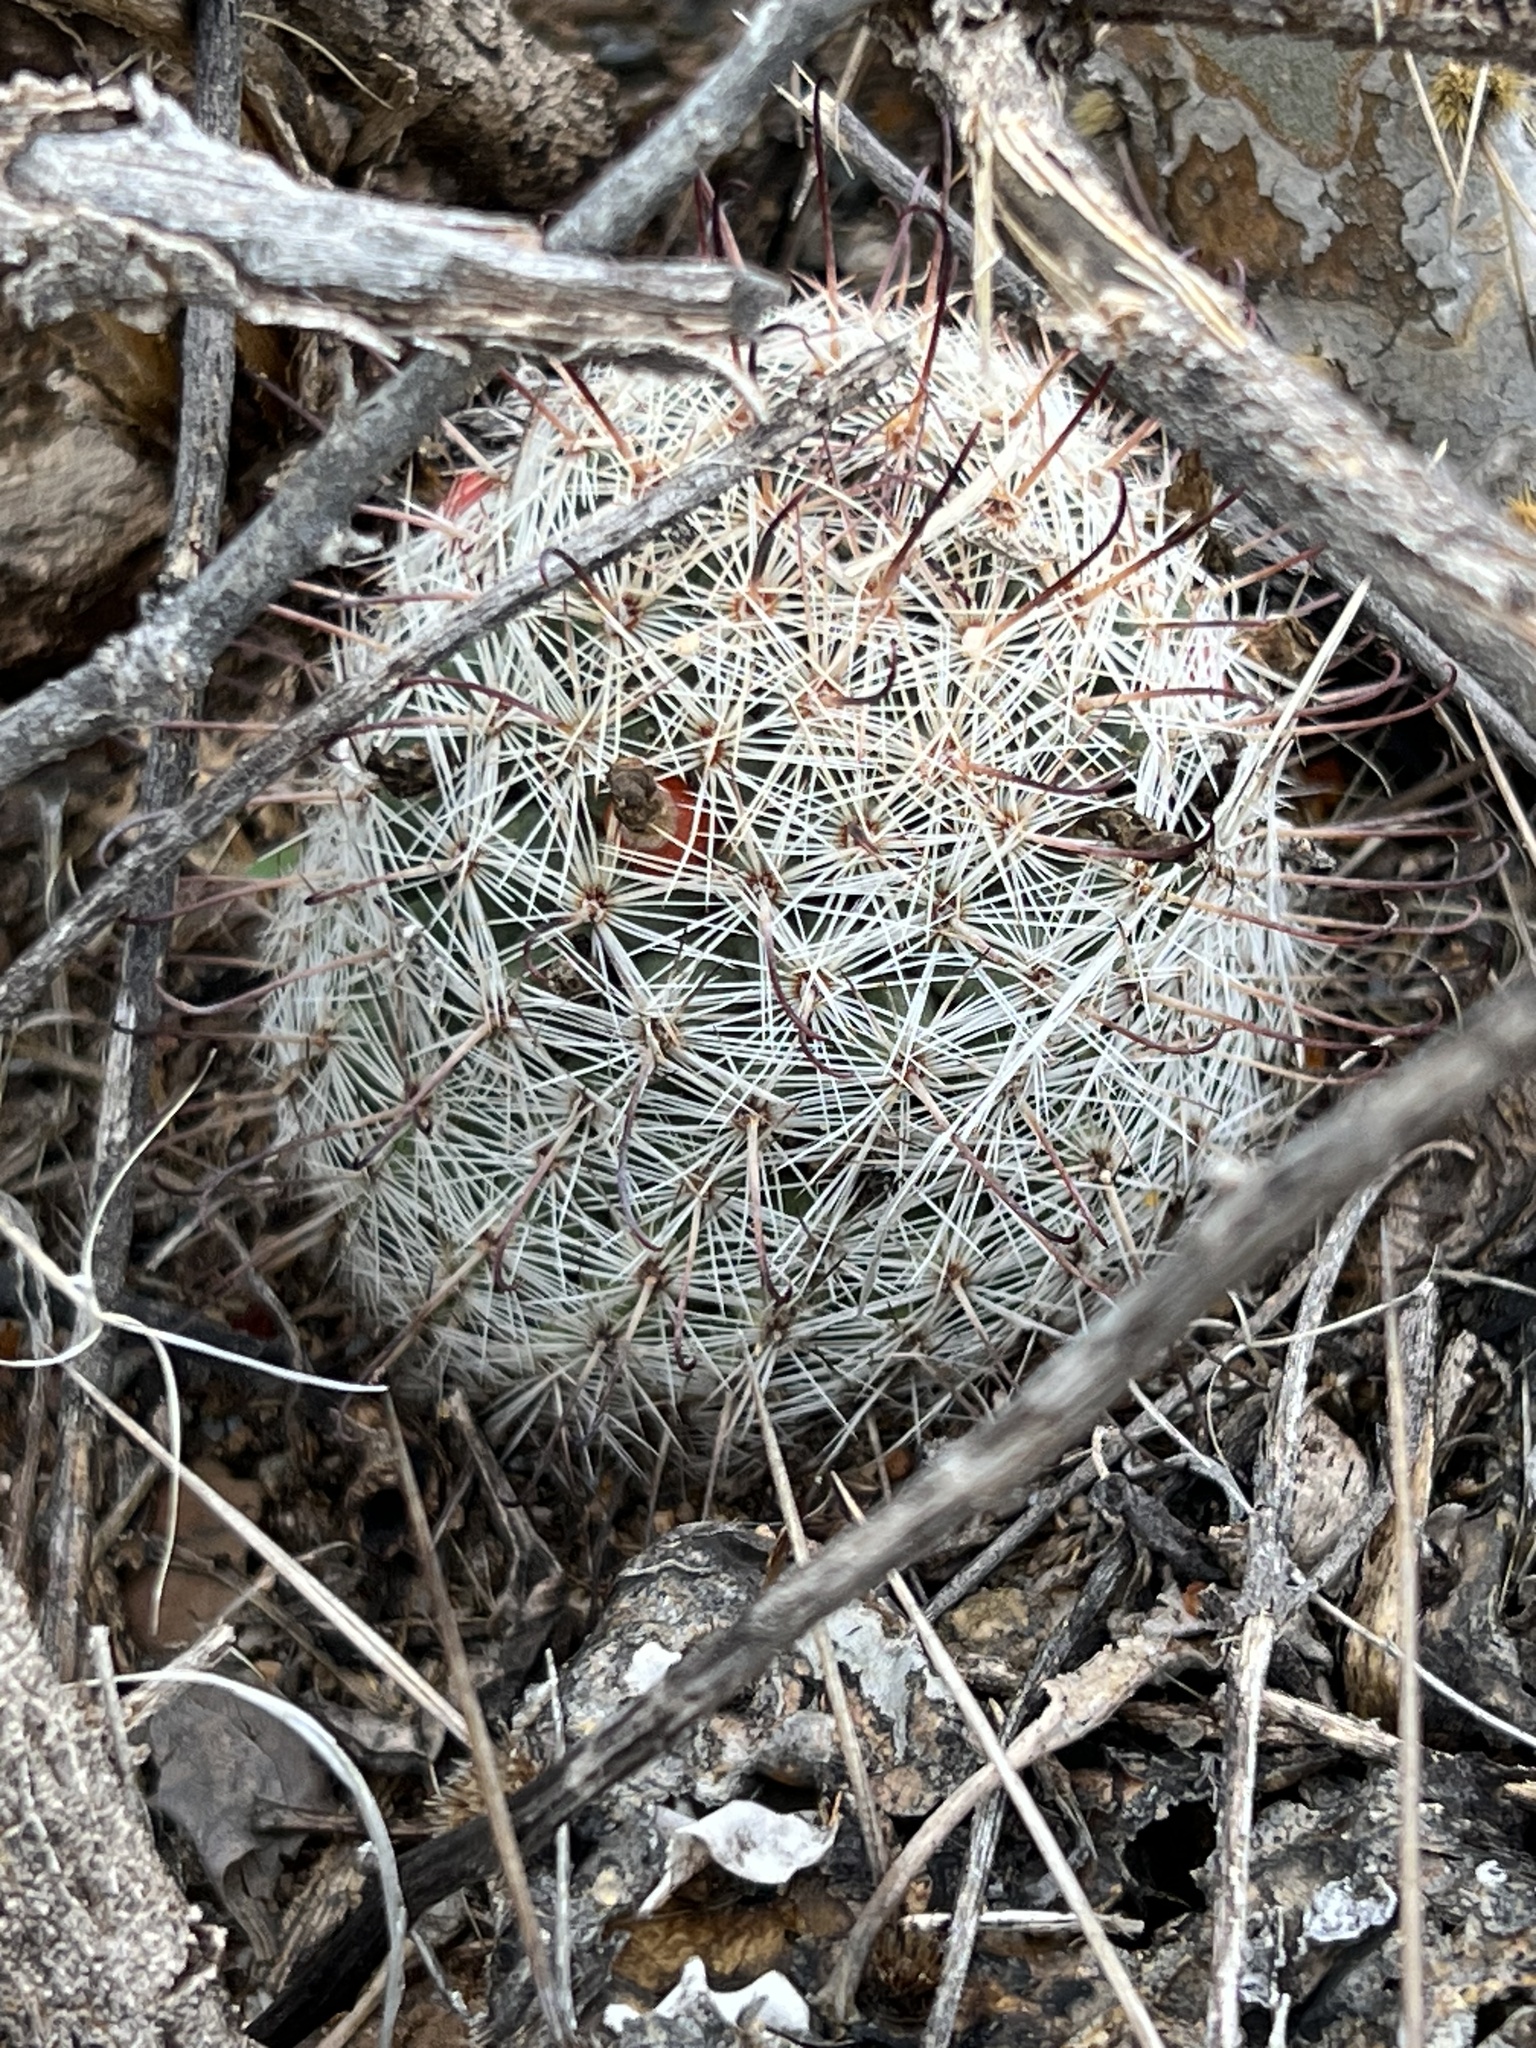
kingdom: Plantae
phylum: Tracheophyta
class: Magnoliopsida
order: Caryophyllales
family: Cactaceae
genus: Cochemiea
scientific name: Cochemiea grahamii
